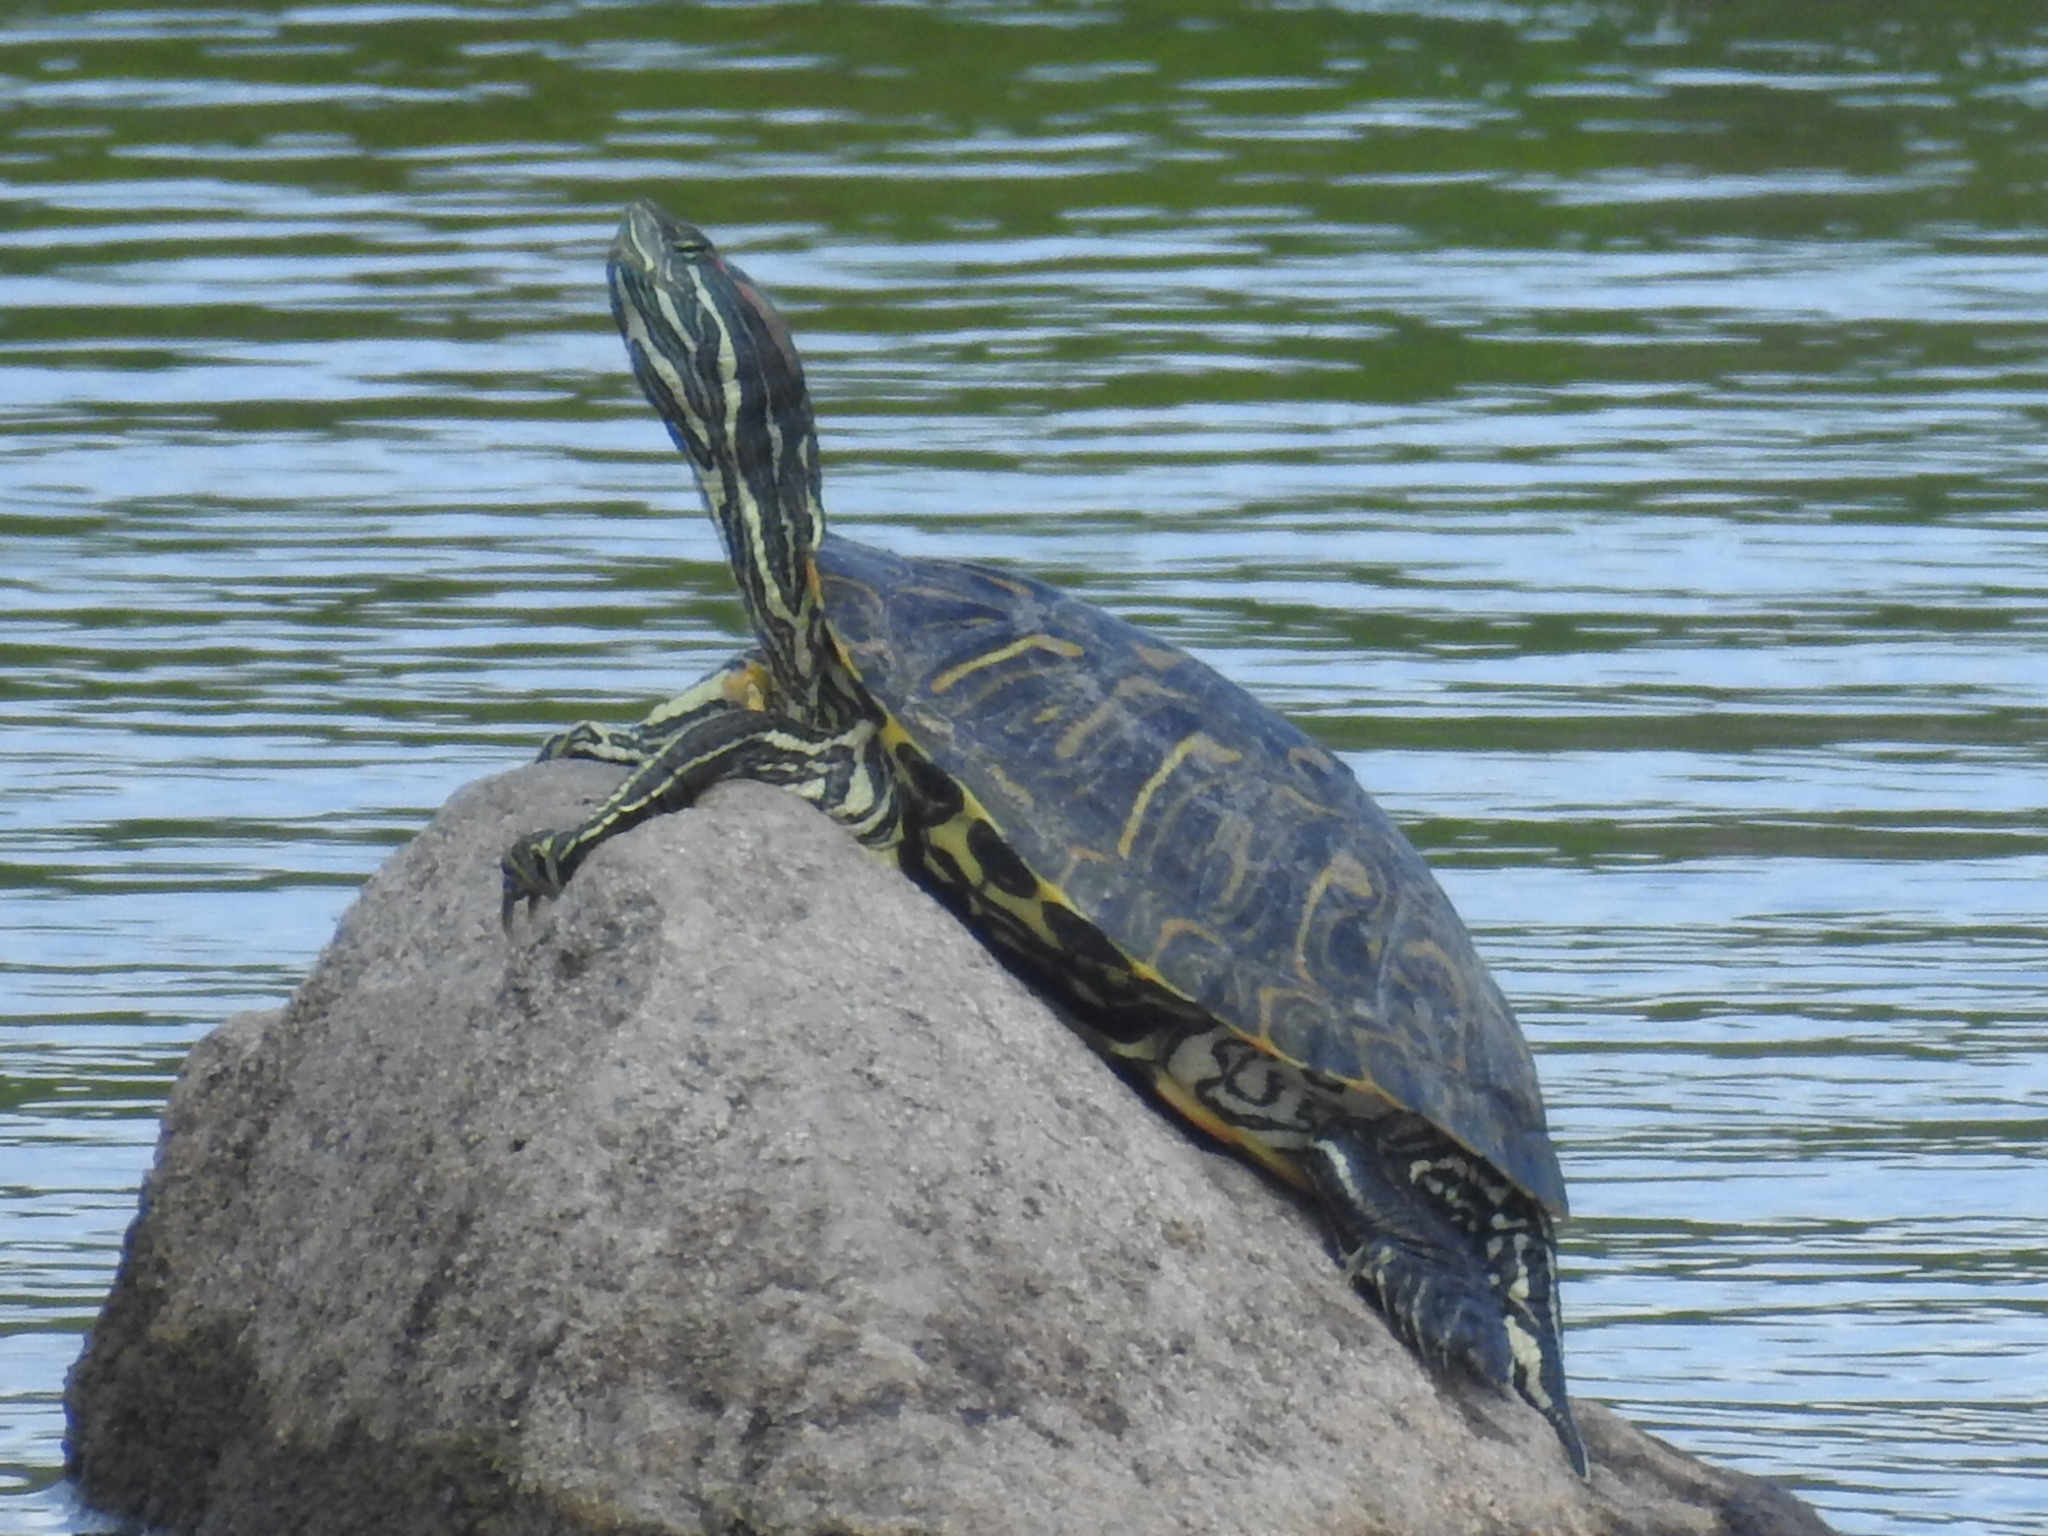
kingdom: Animalia
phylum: Chordata
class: Testudines
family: Emydidae
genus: Trachemys
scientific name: Trachemys scripta
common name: Slider
